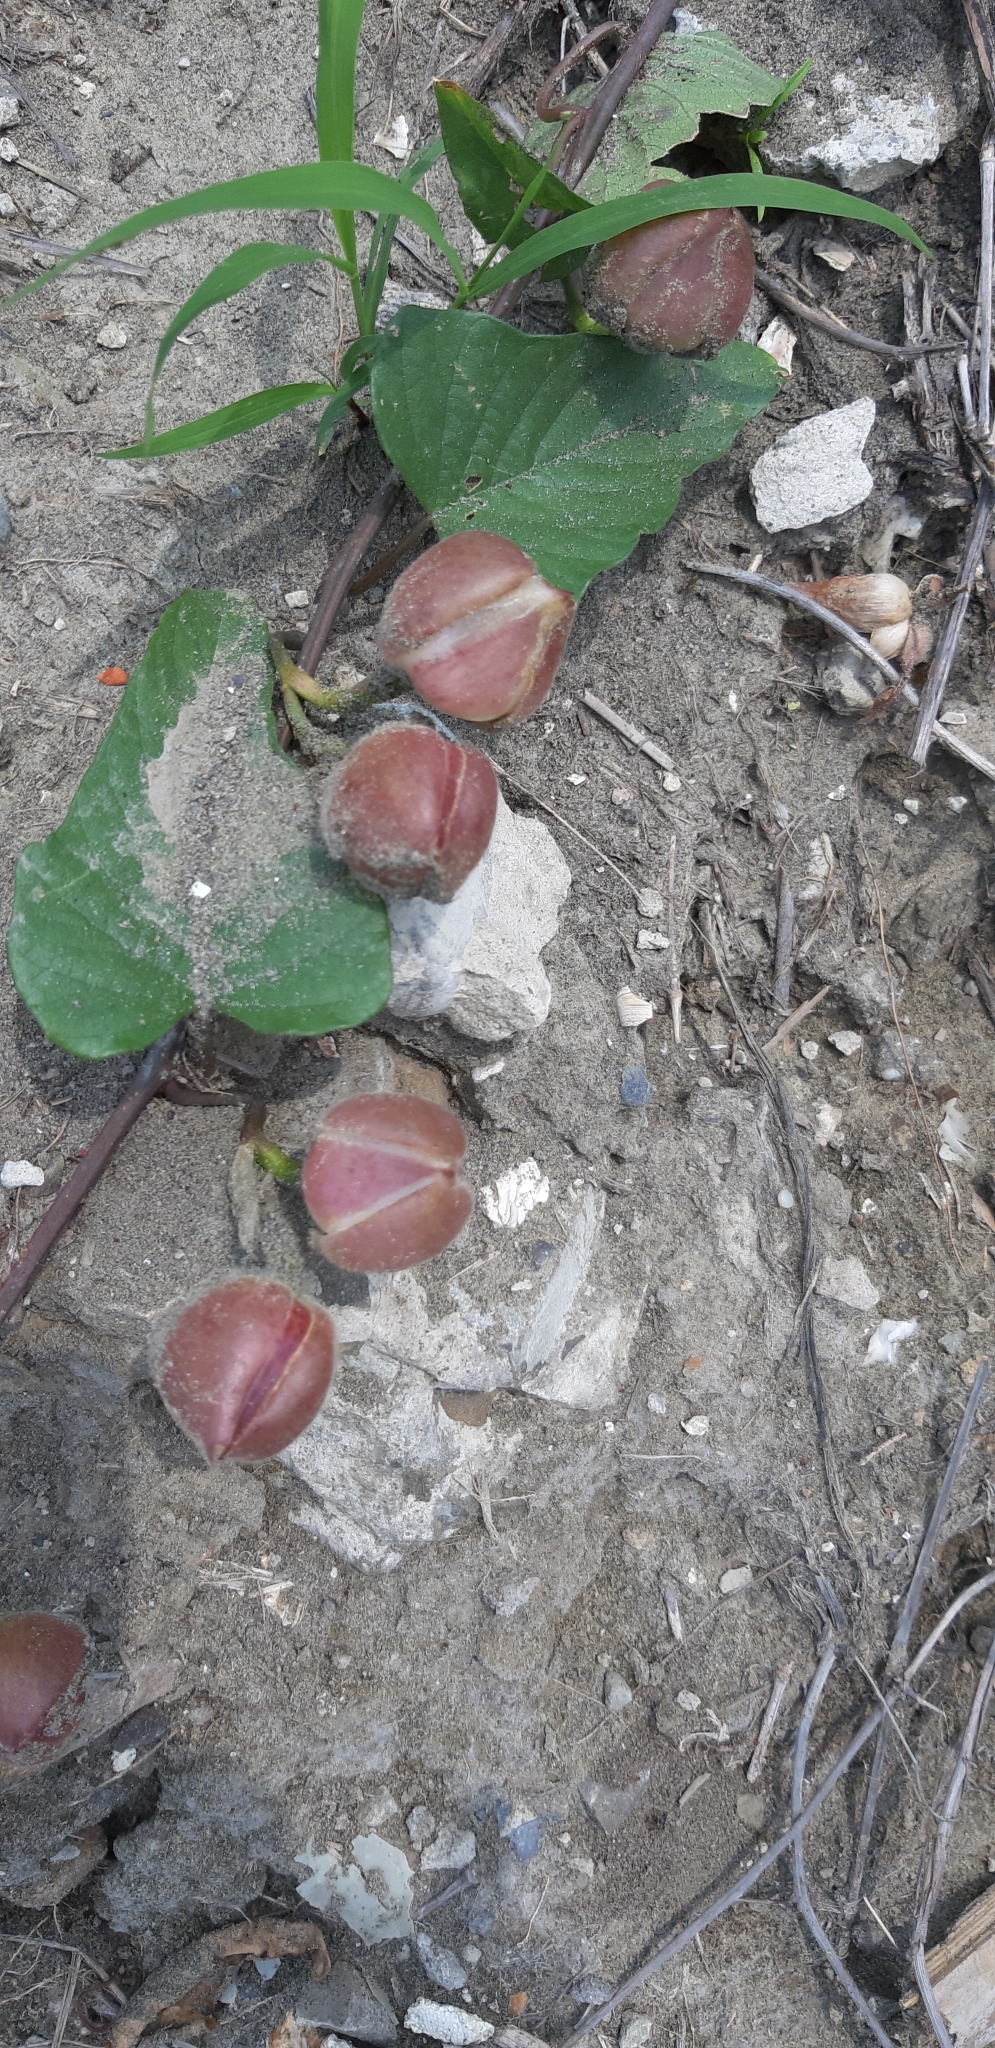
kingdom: Plantae
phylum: Tracheophyta
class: Magnoliopsida
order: Solanales
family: Convolvulaceae
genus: Operculina
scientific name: Operculina turpethum
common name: Transparent wood-rose
